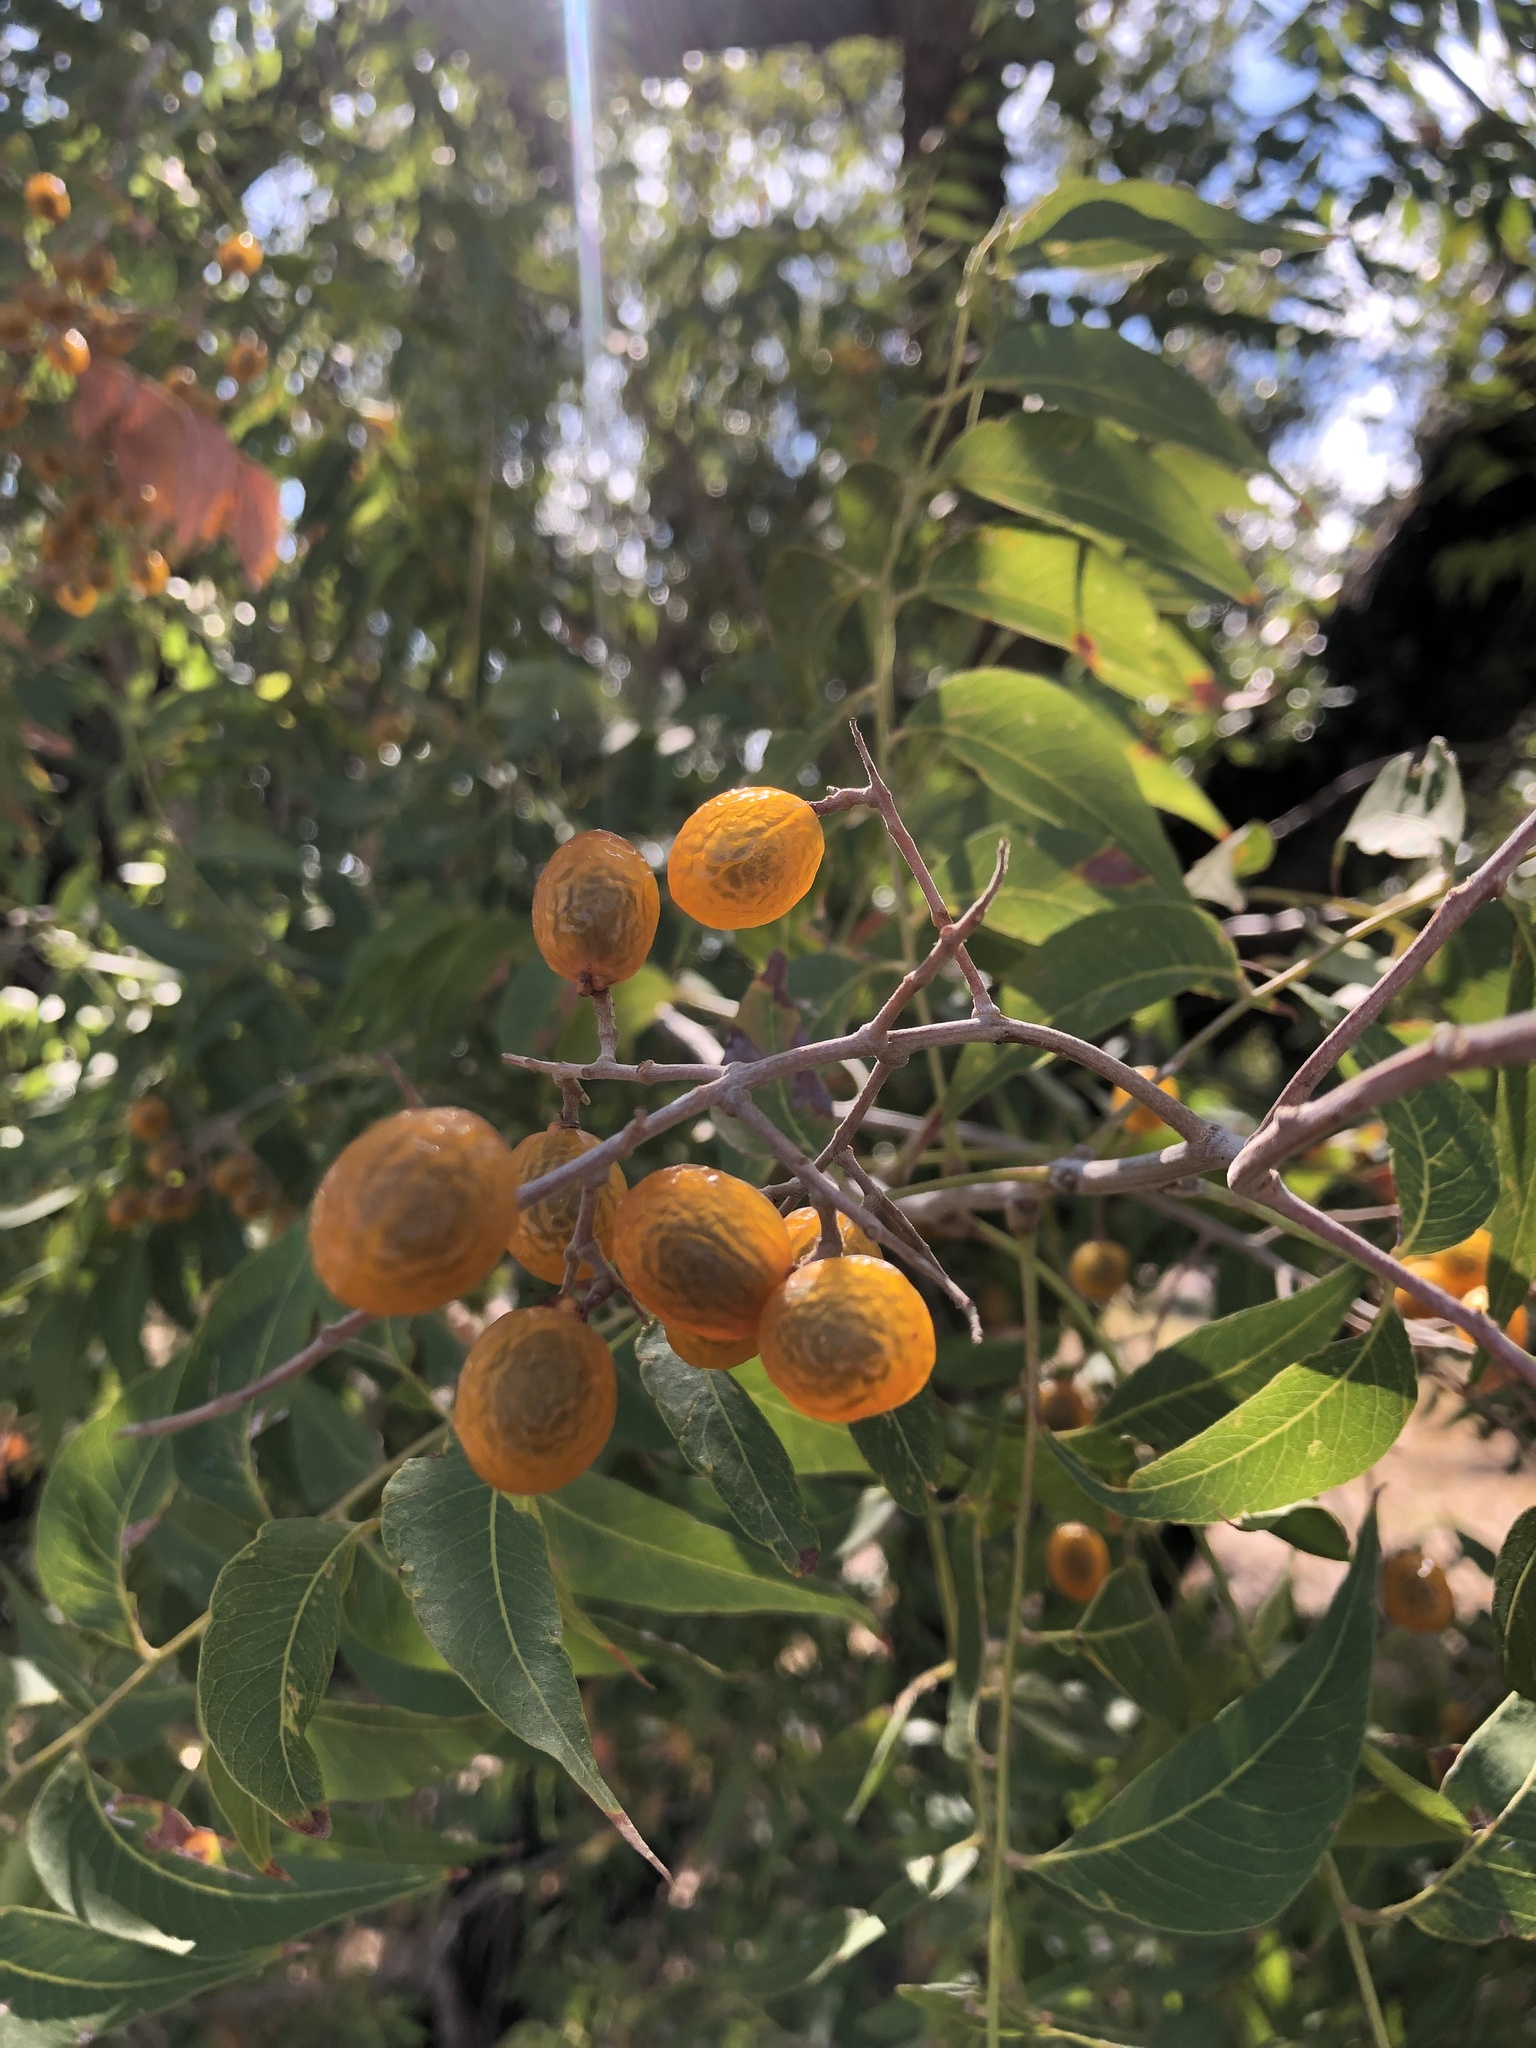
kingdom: Plantae
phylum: Tracheophyta
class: Magnoliopsida
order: Sapindales
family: Sapindaceae
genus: Sapindus
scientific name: Sapindus drummondii
